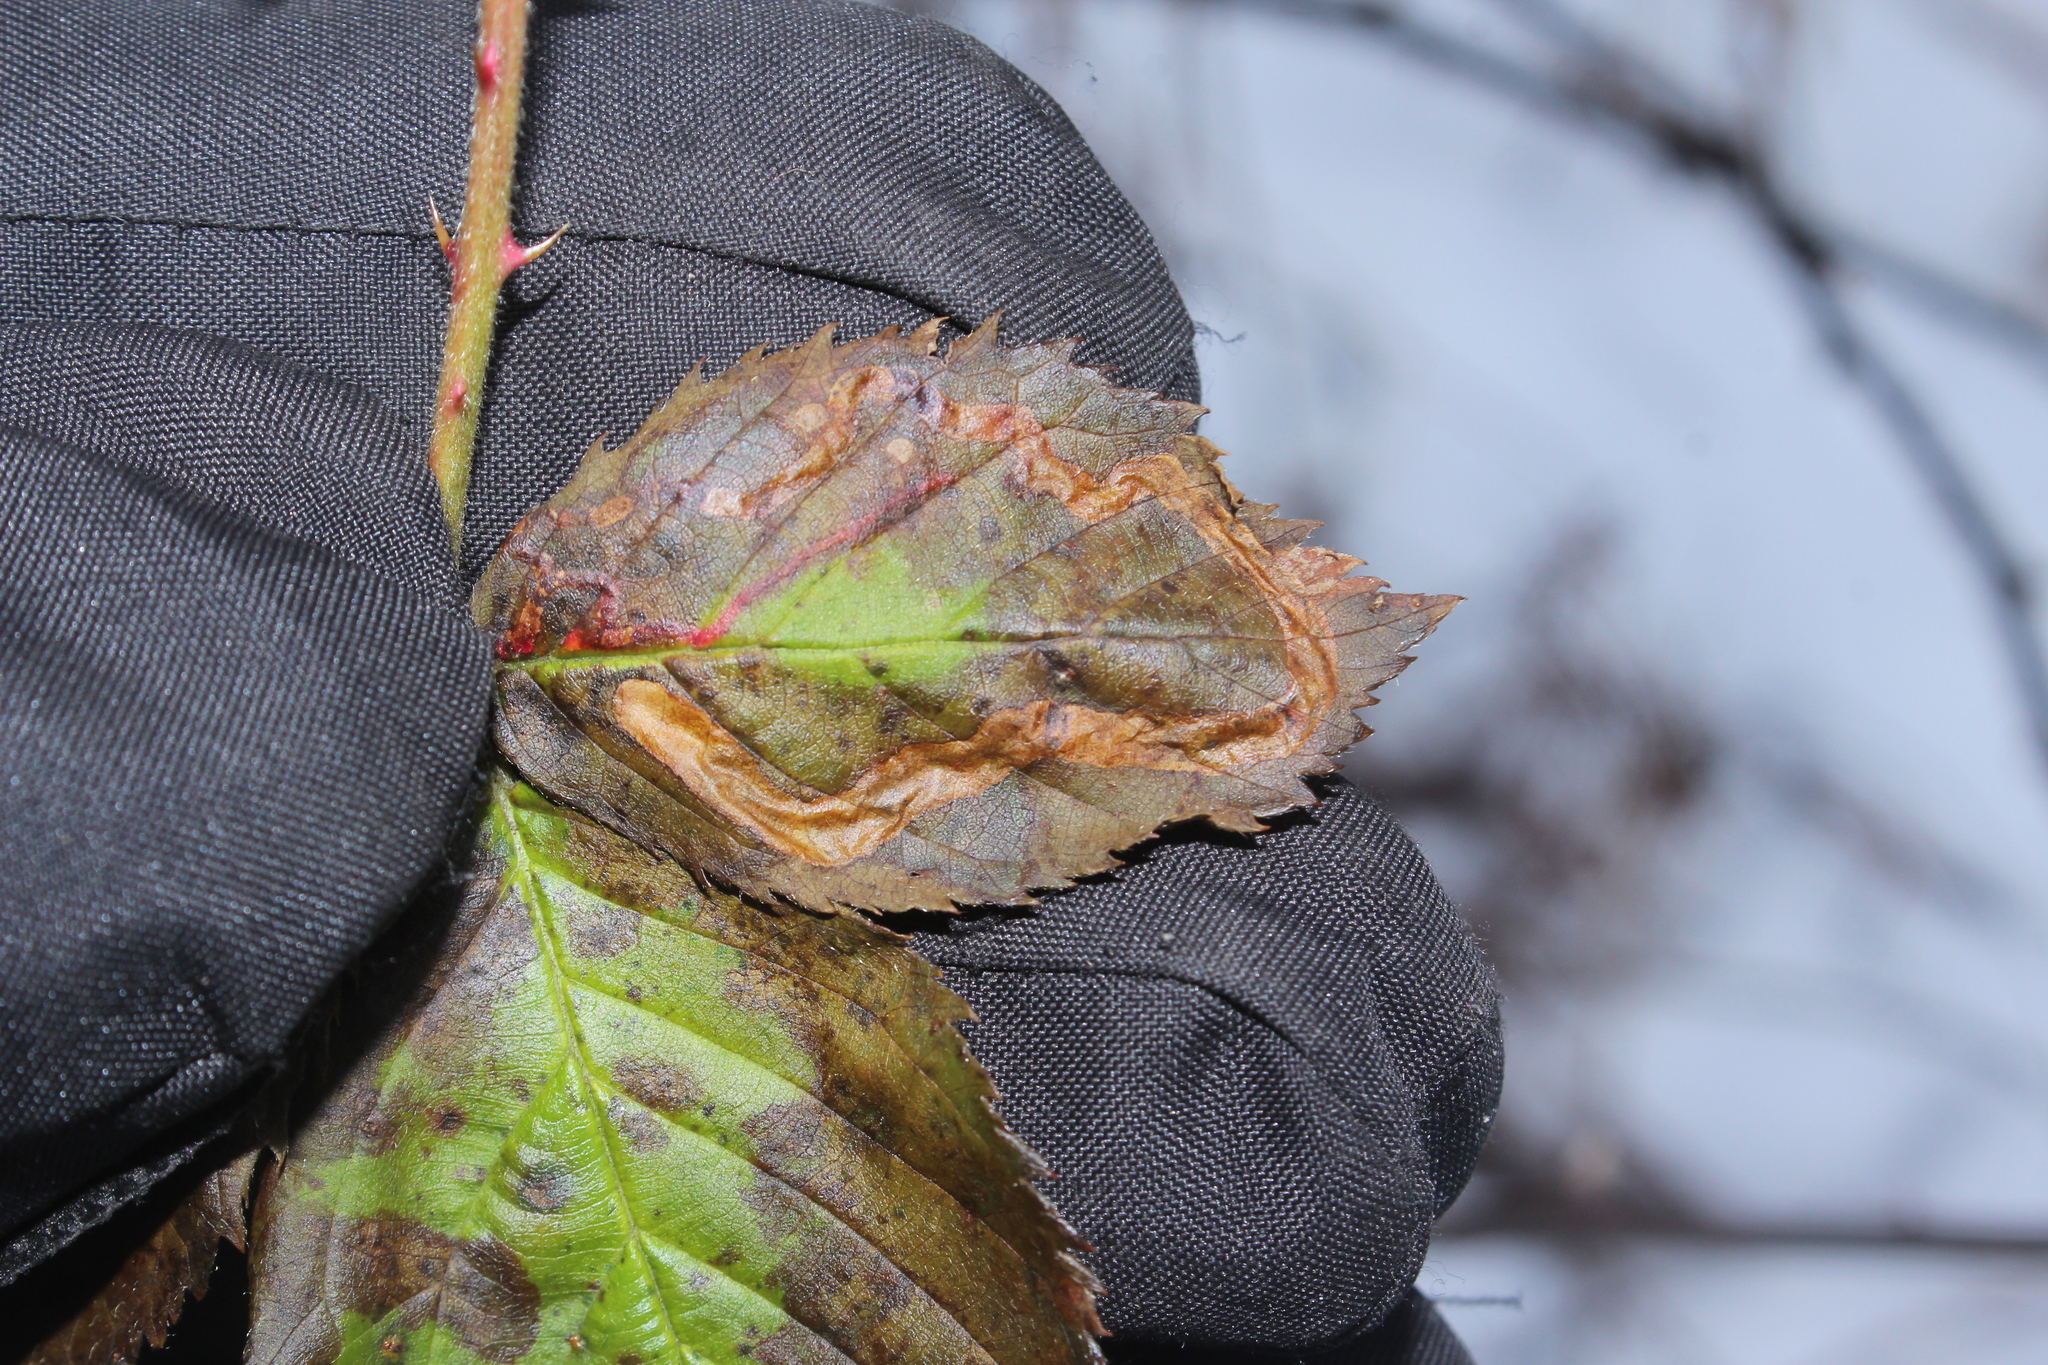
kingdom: Animalia
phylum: Arthropoda
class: Insecta
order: Diptera
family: Agromyzidae
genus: Agromyza
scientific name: Agromyza vockerothi
